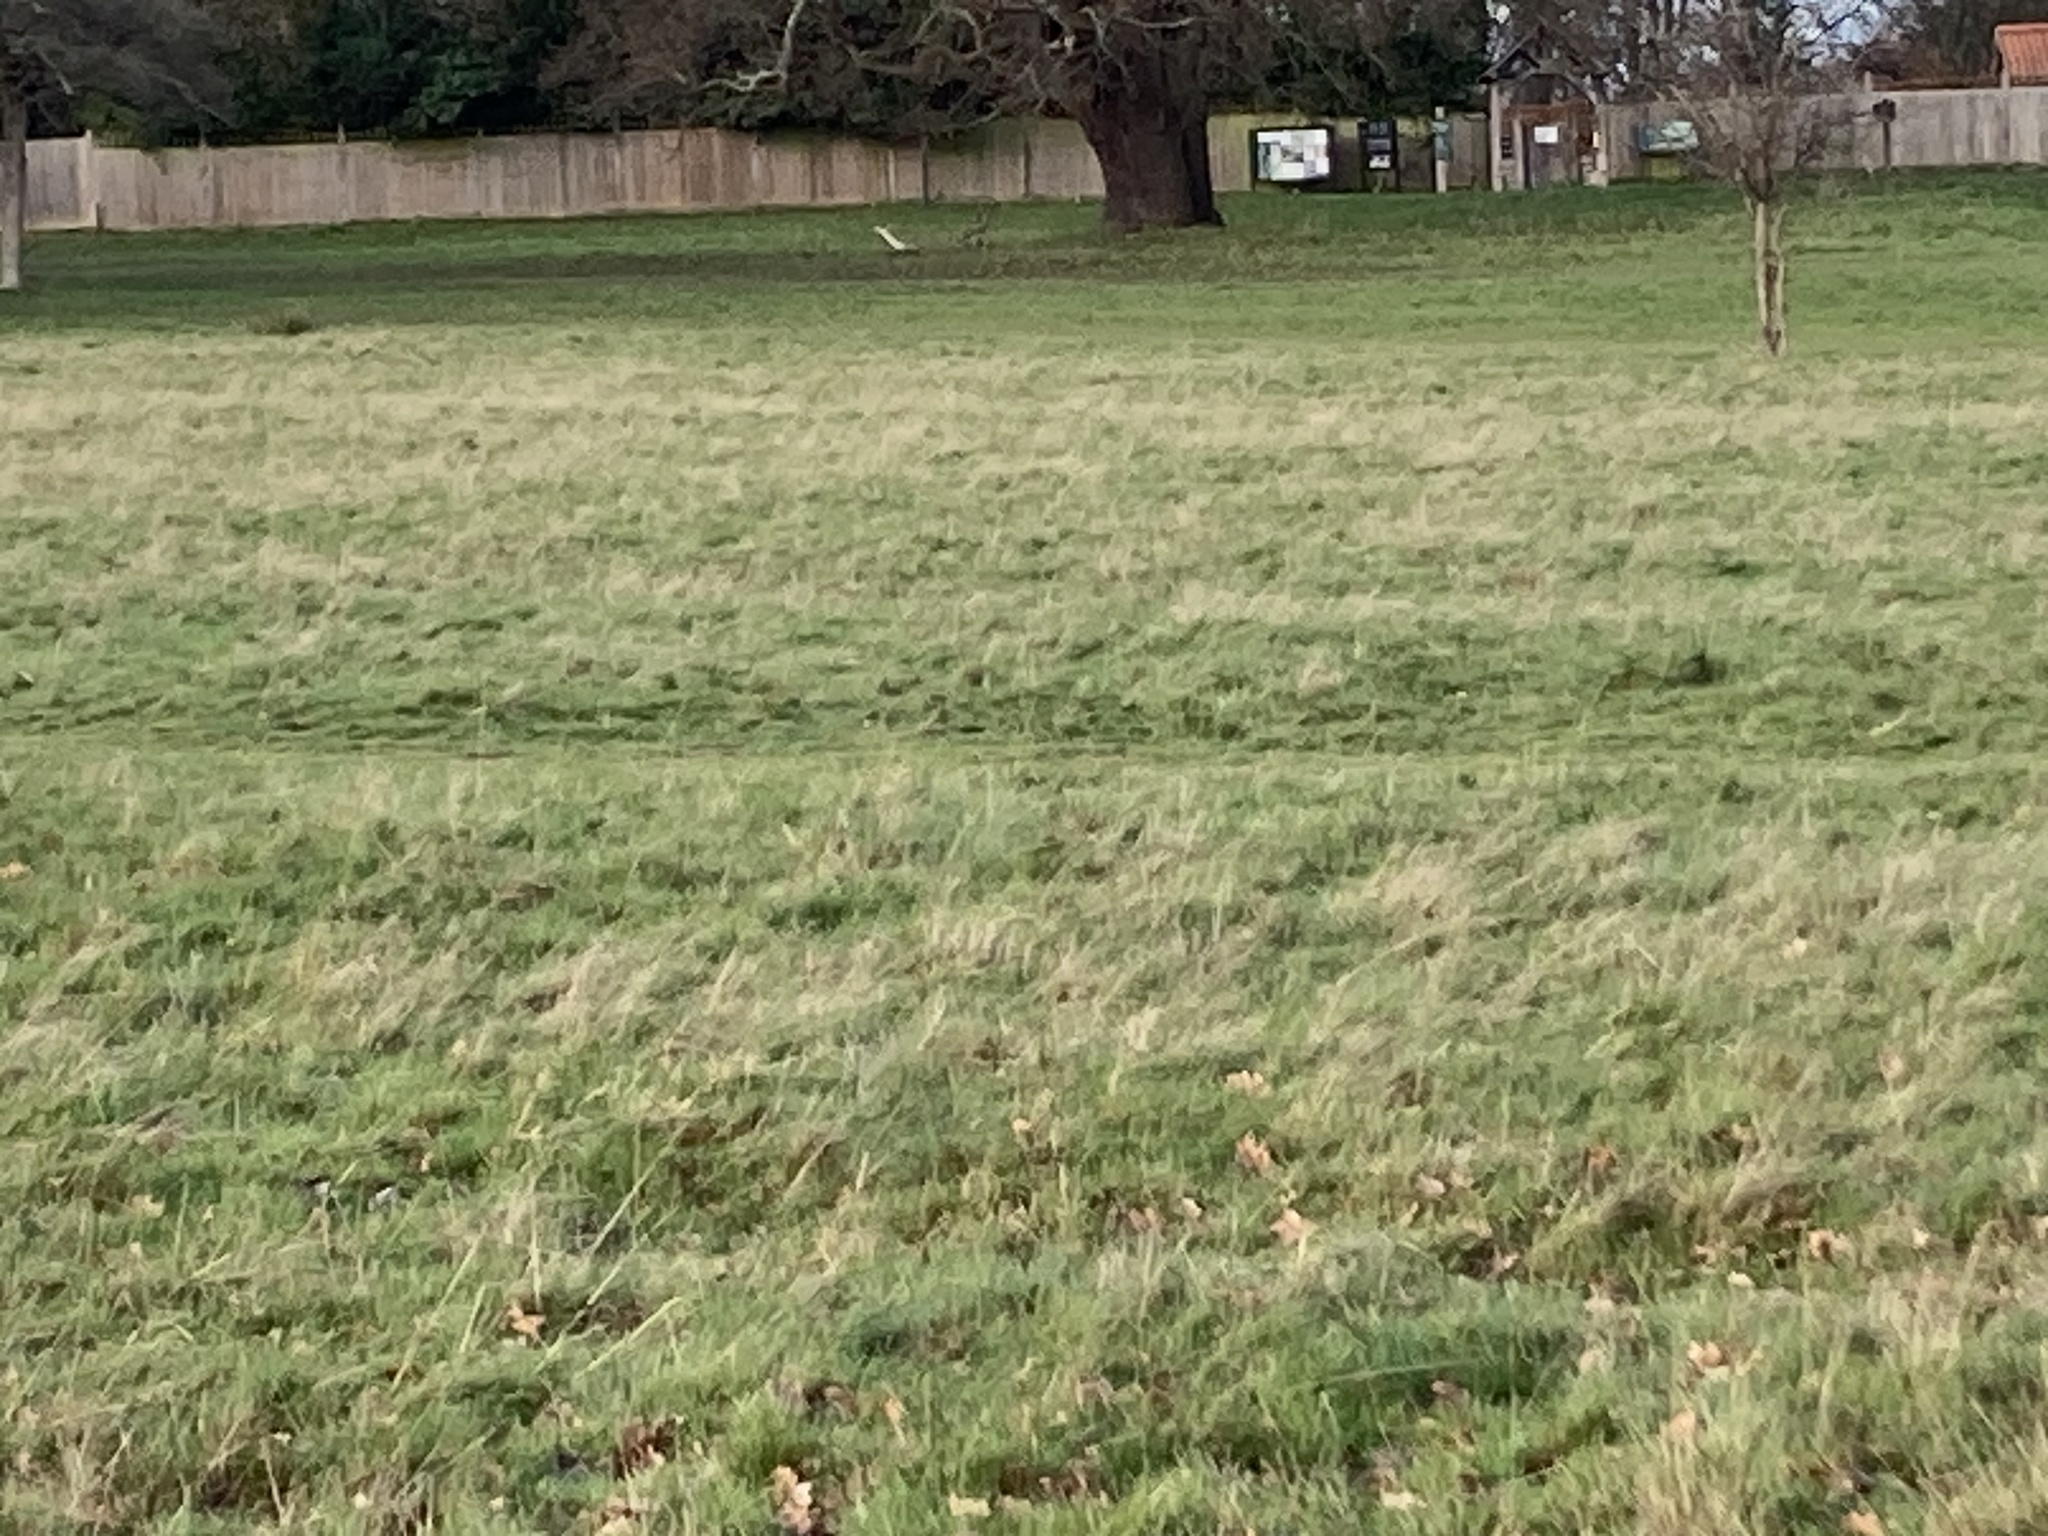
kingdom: Animalia
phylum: Chordata
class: Aves
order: Piciformes
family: Picidae
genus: Picus
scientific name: Picus viridis
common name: European green woodpecker
